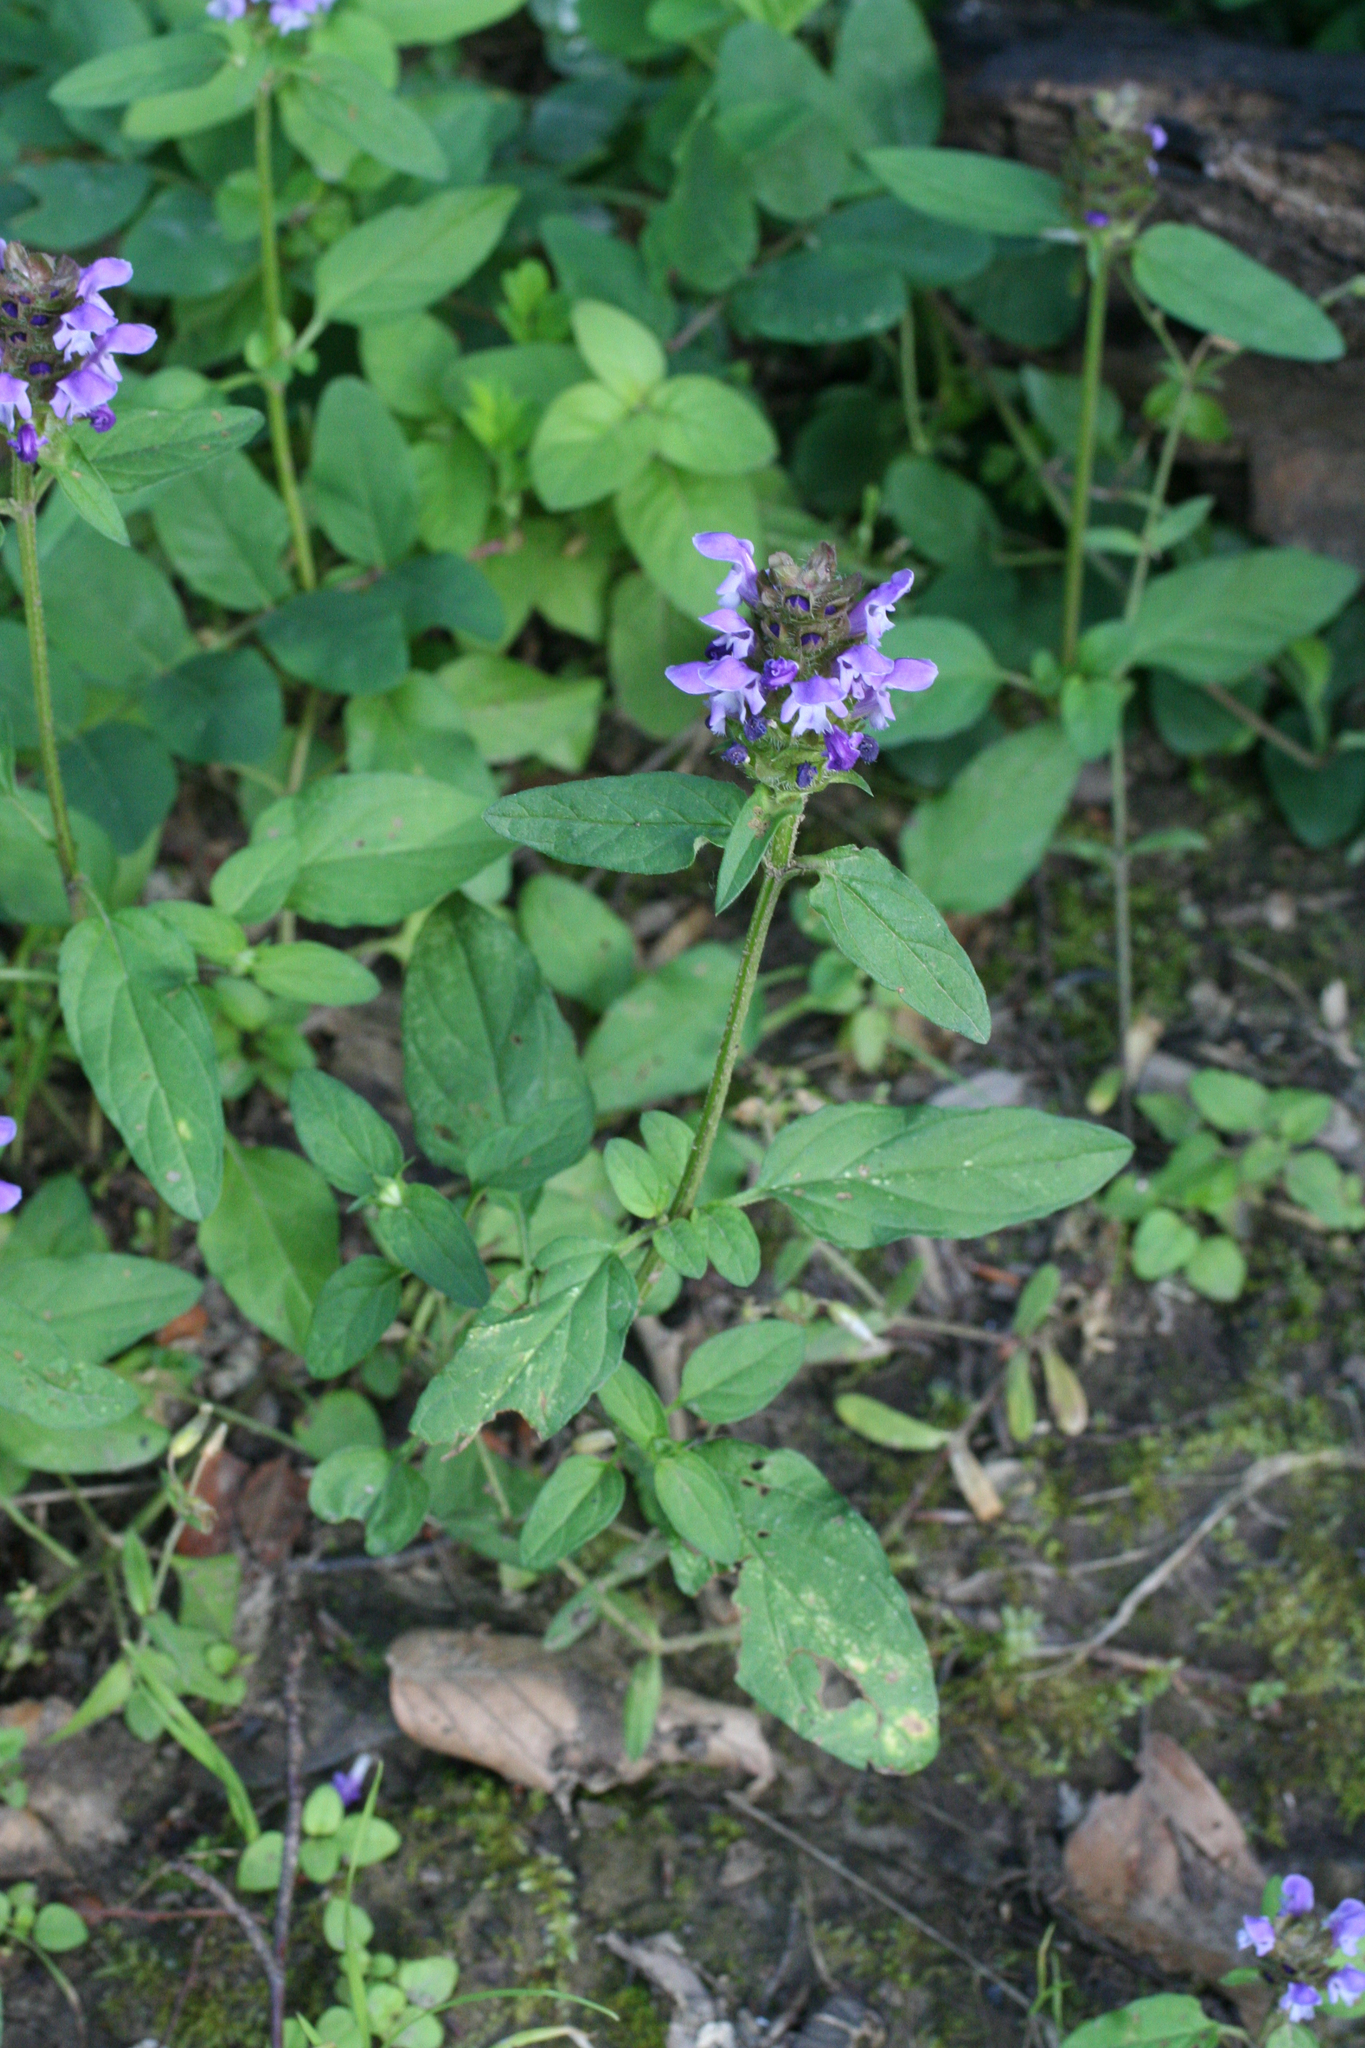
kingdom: Plantae
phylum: Tracheophyta
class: Magnoliopsida
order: Lamiales
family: Lamiaceae
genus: Prunella
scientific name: Prunella vulgaris
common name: Heal-all
